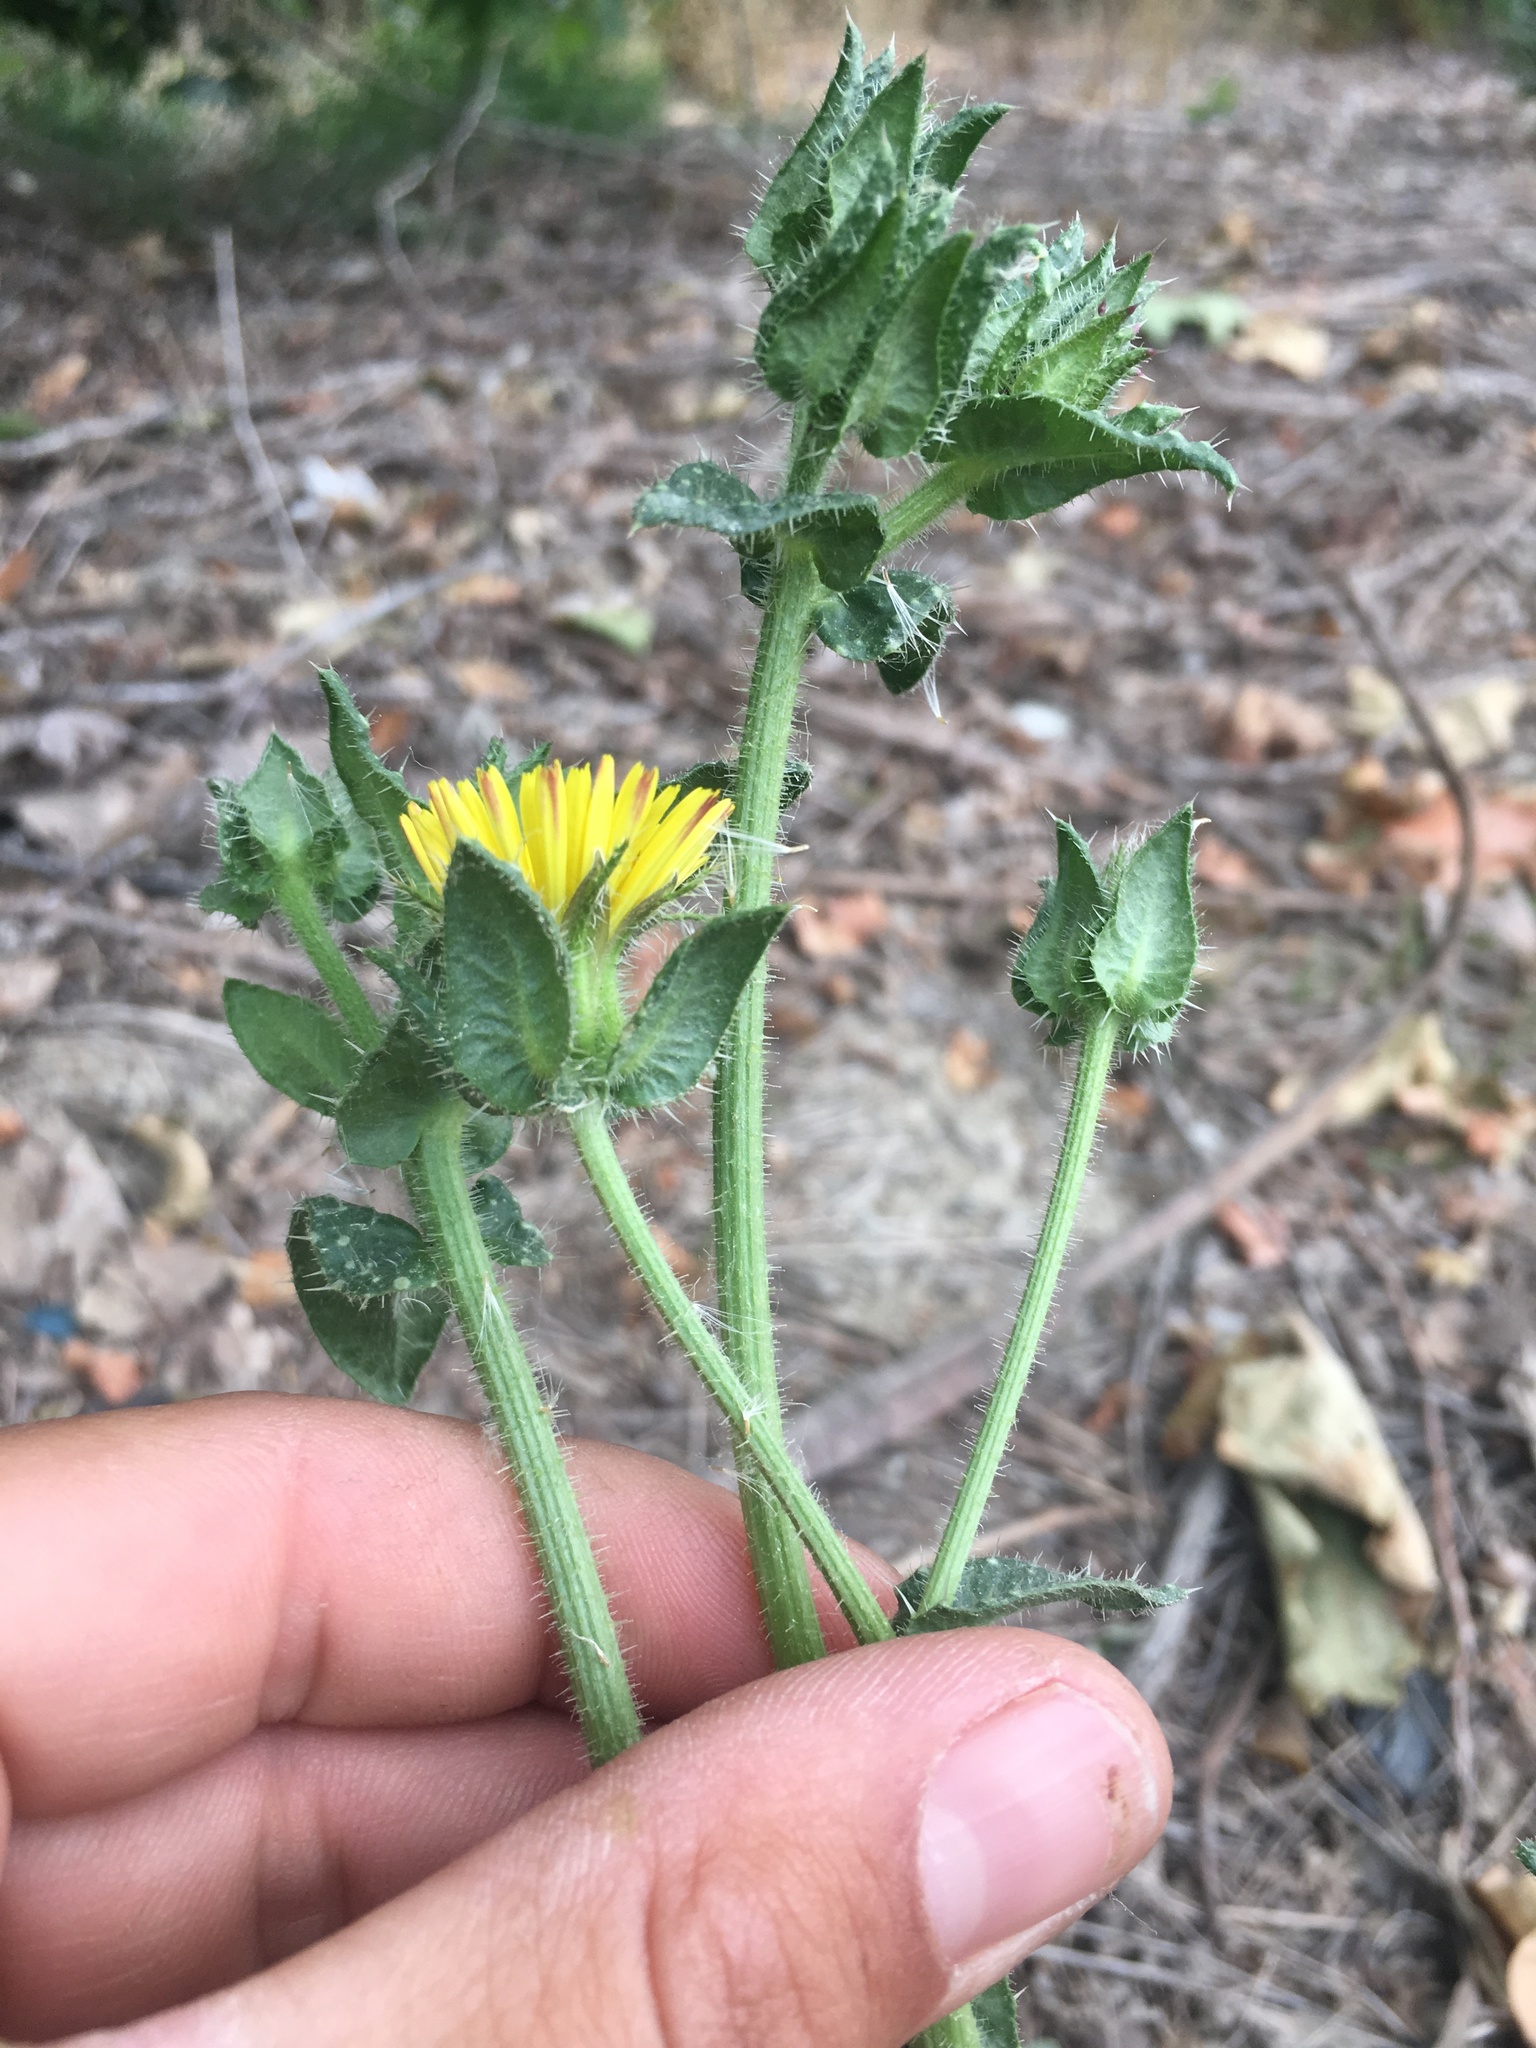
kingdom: Plantae
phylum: Tracheophyta
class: Magnoliopsida
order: Asterales
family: Asteraceae
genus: Helminthotheca
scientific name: Helminthotheca echioides
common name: Ox-tongue
